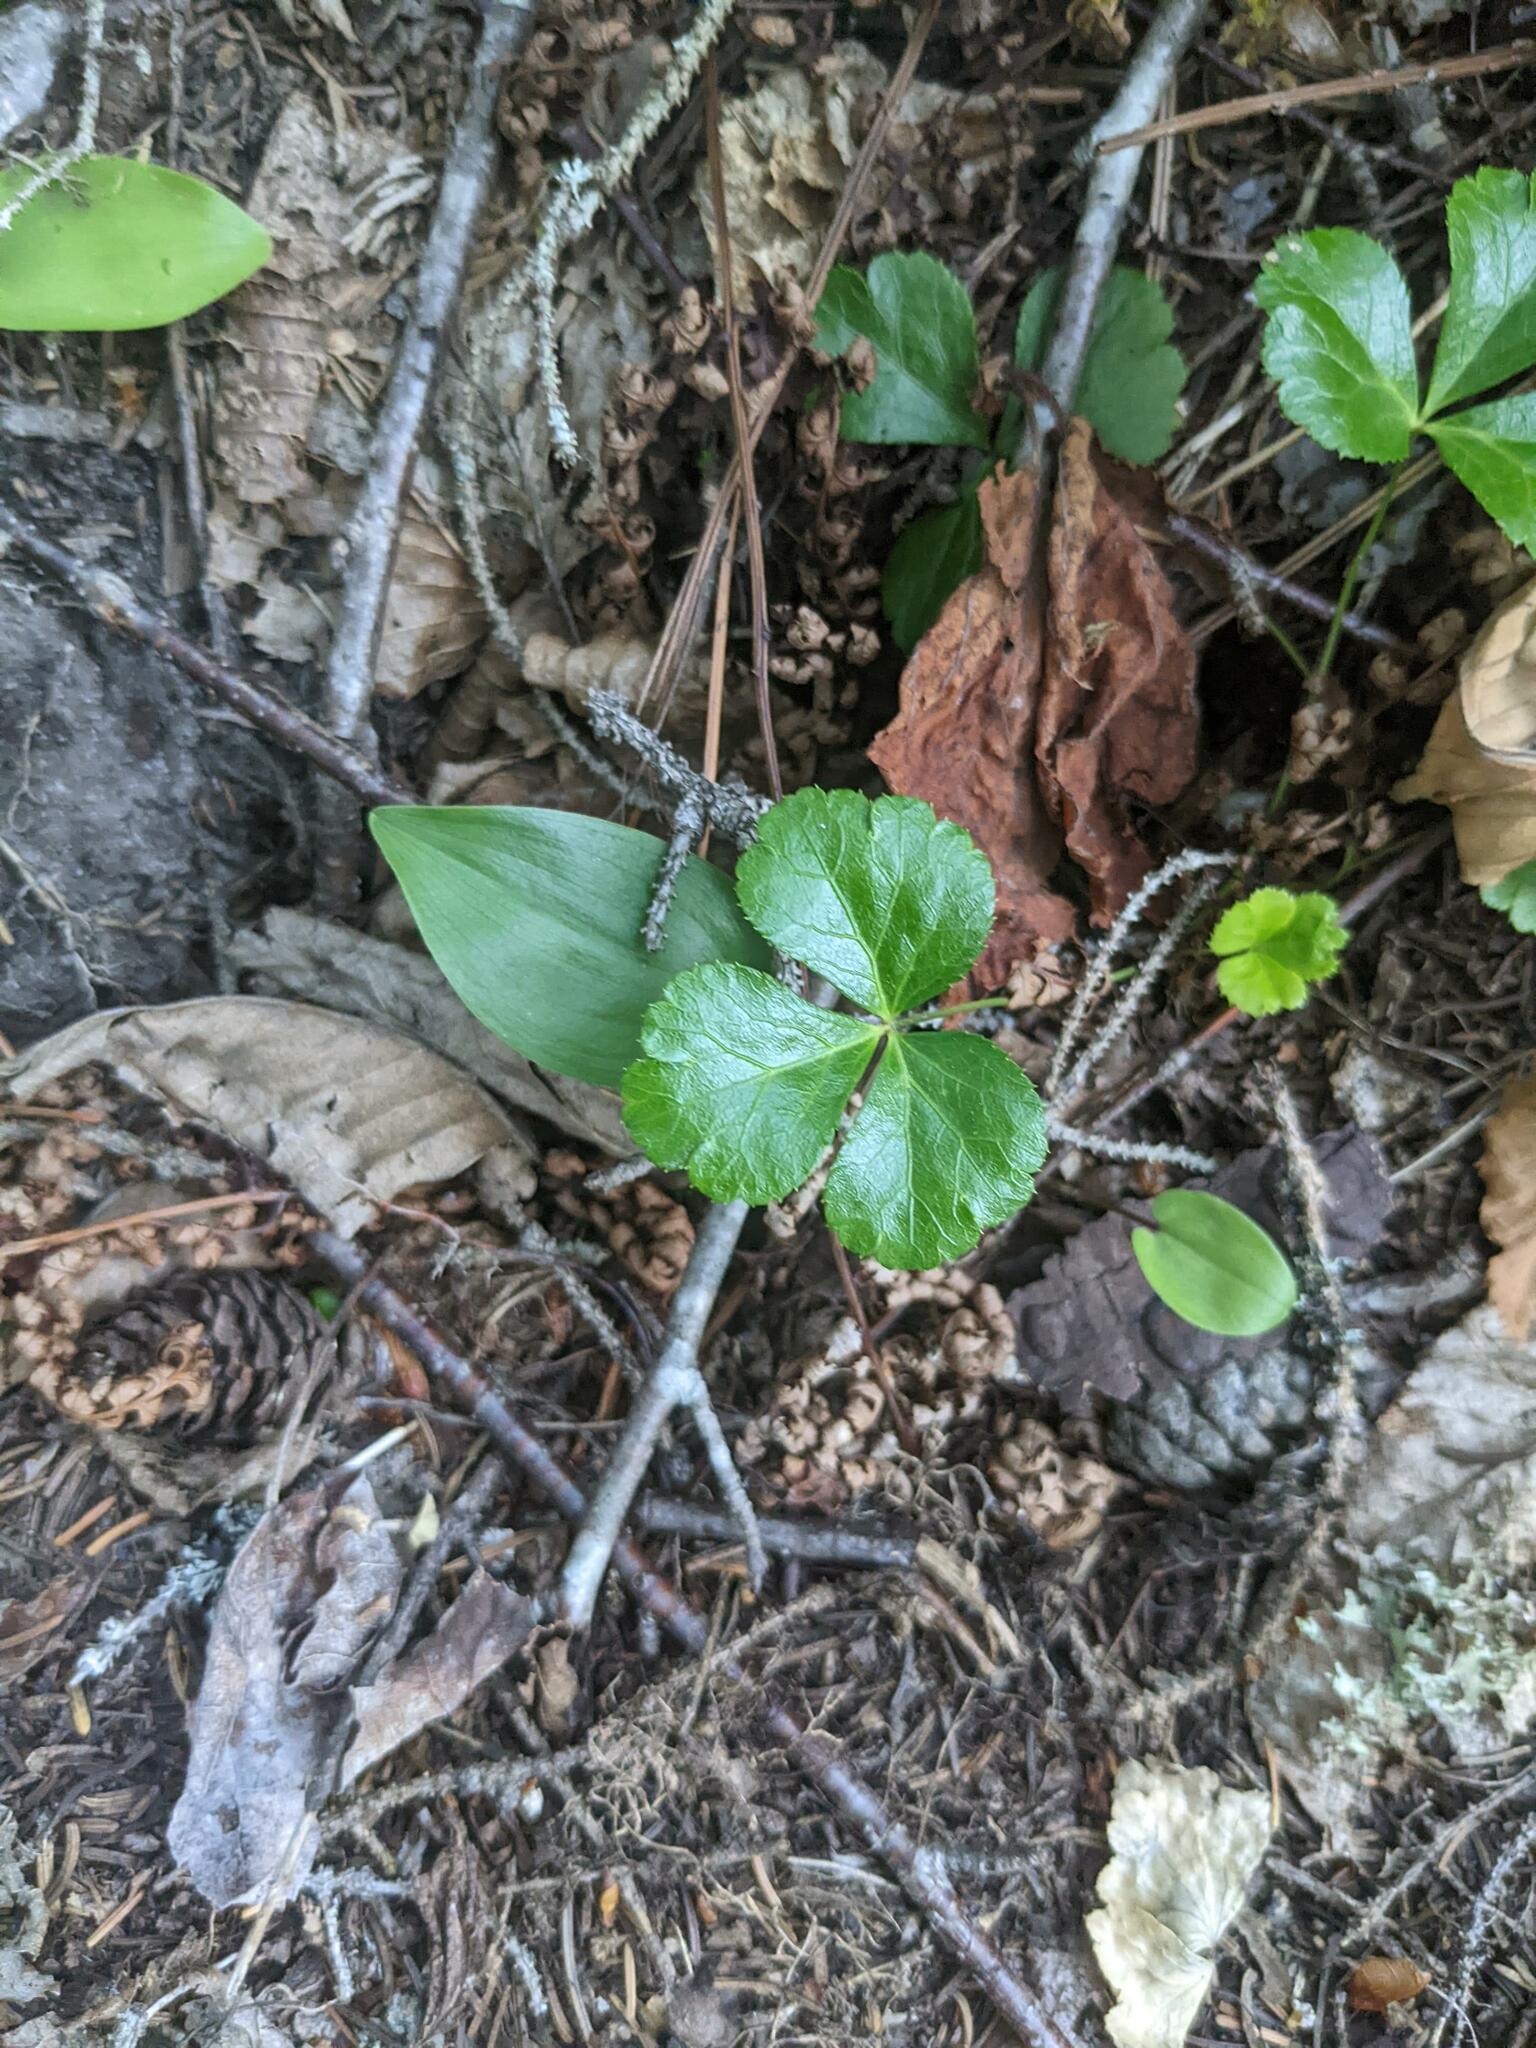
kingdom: Plantae
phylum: Tracheophyta
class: Magnoliopsida
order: Ranunculales
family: Ranunculaceae
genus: Coptis
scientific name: Coptis trifolia
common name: Canker-root
